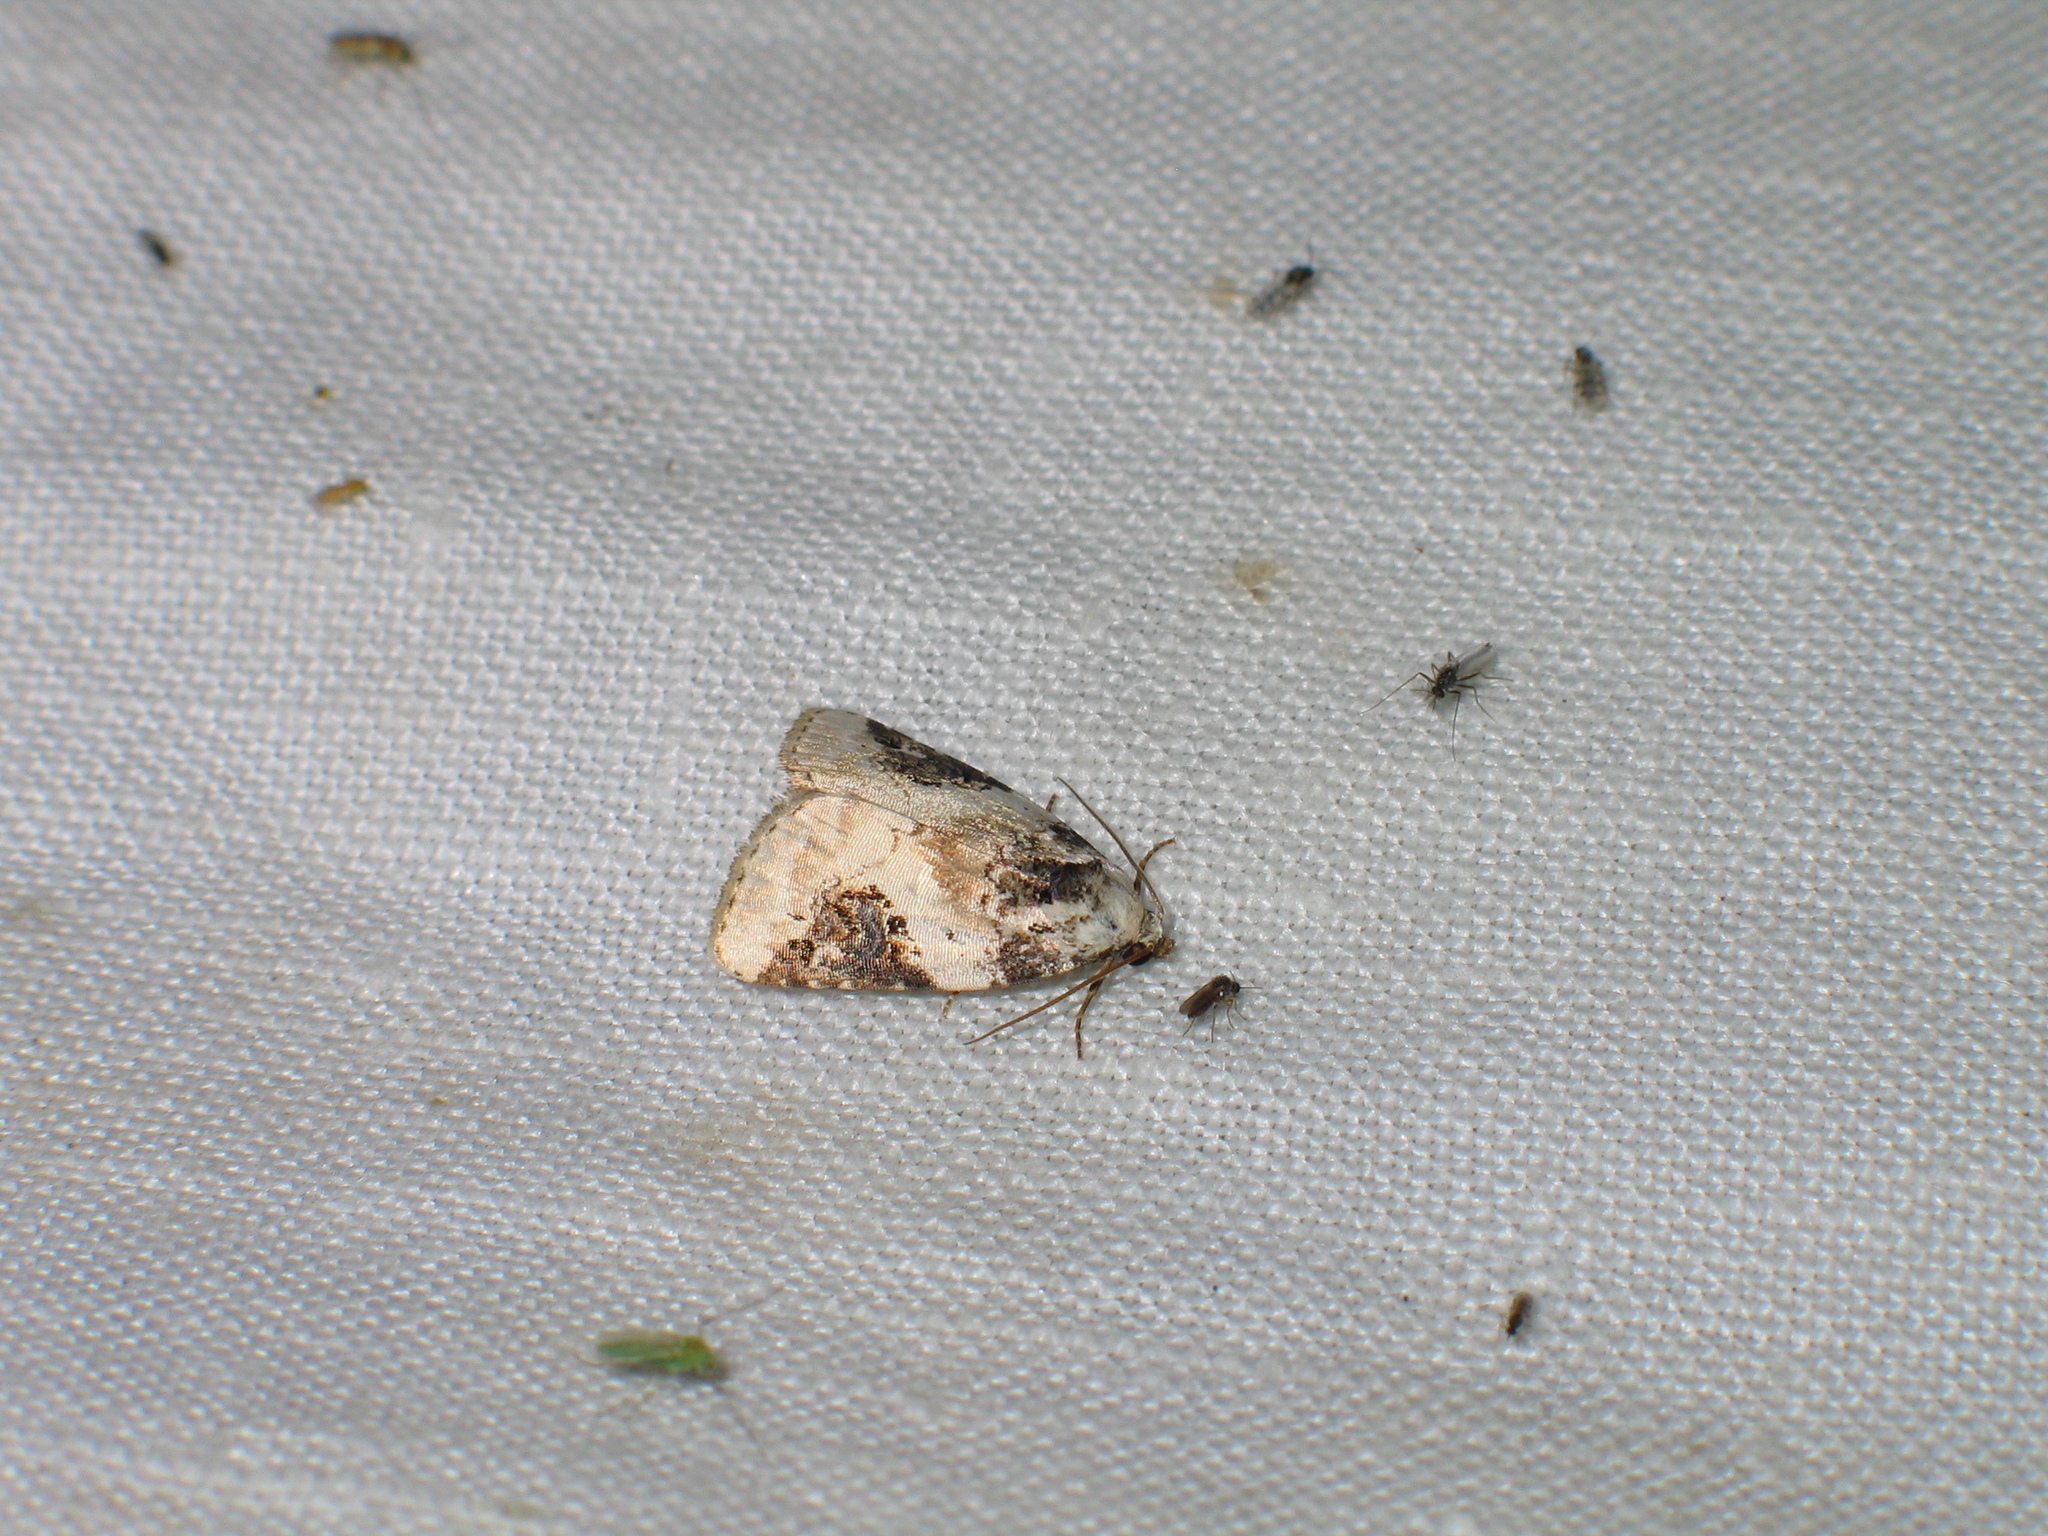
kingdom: Animalia
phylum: Arthropoda
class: Insecta
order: Lepidoptera
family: Noctuidae
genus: Pseudeustrotia
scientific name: Pseudeustrotia candidula
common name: Shining marbled
